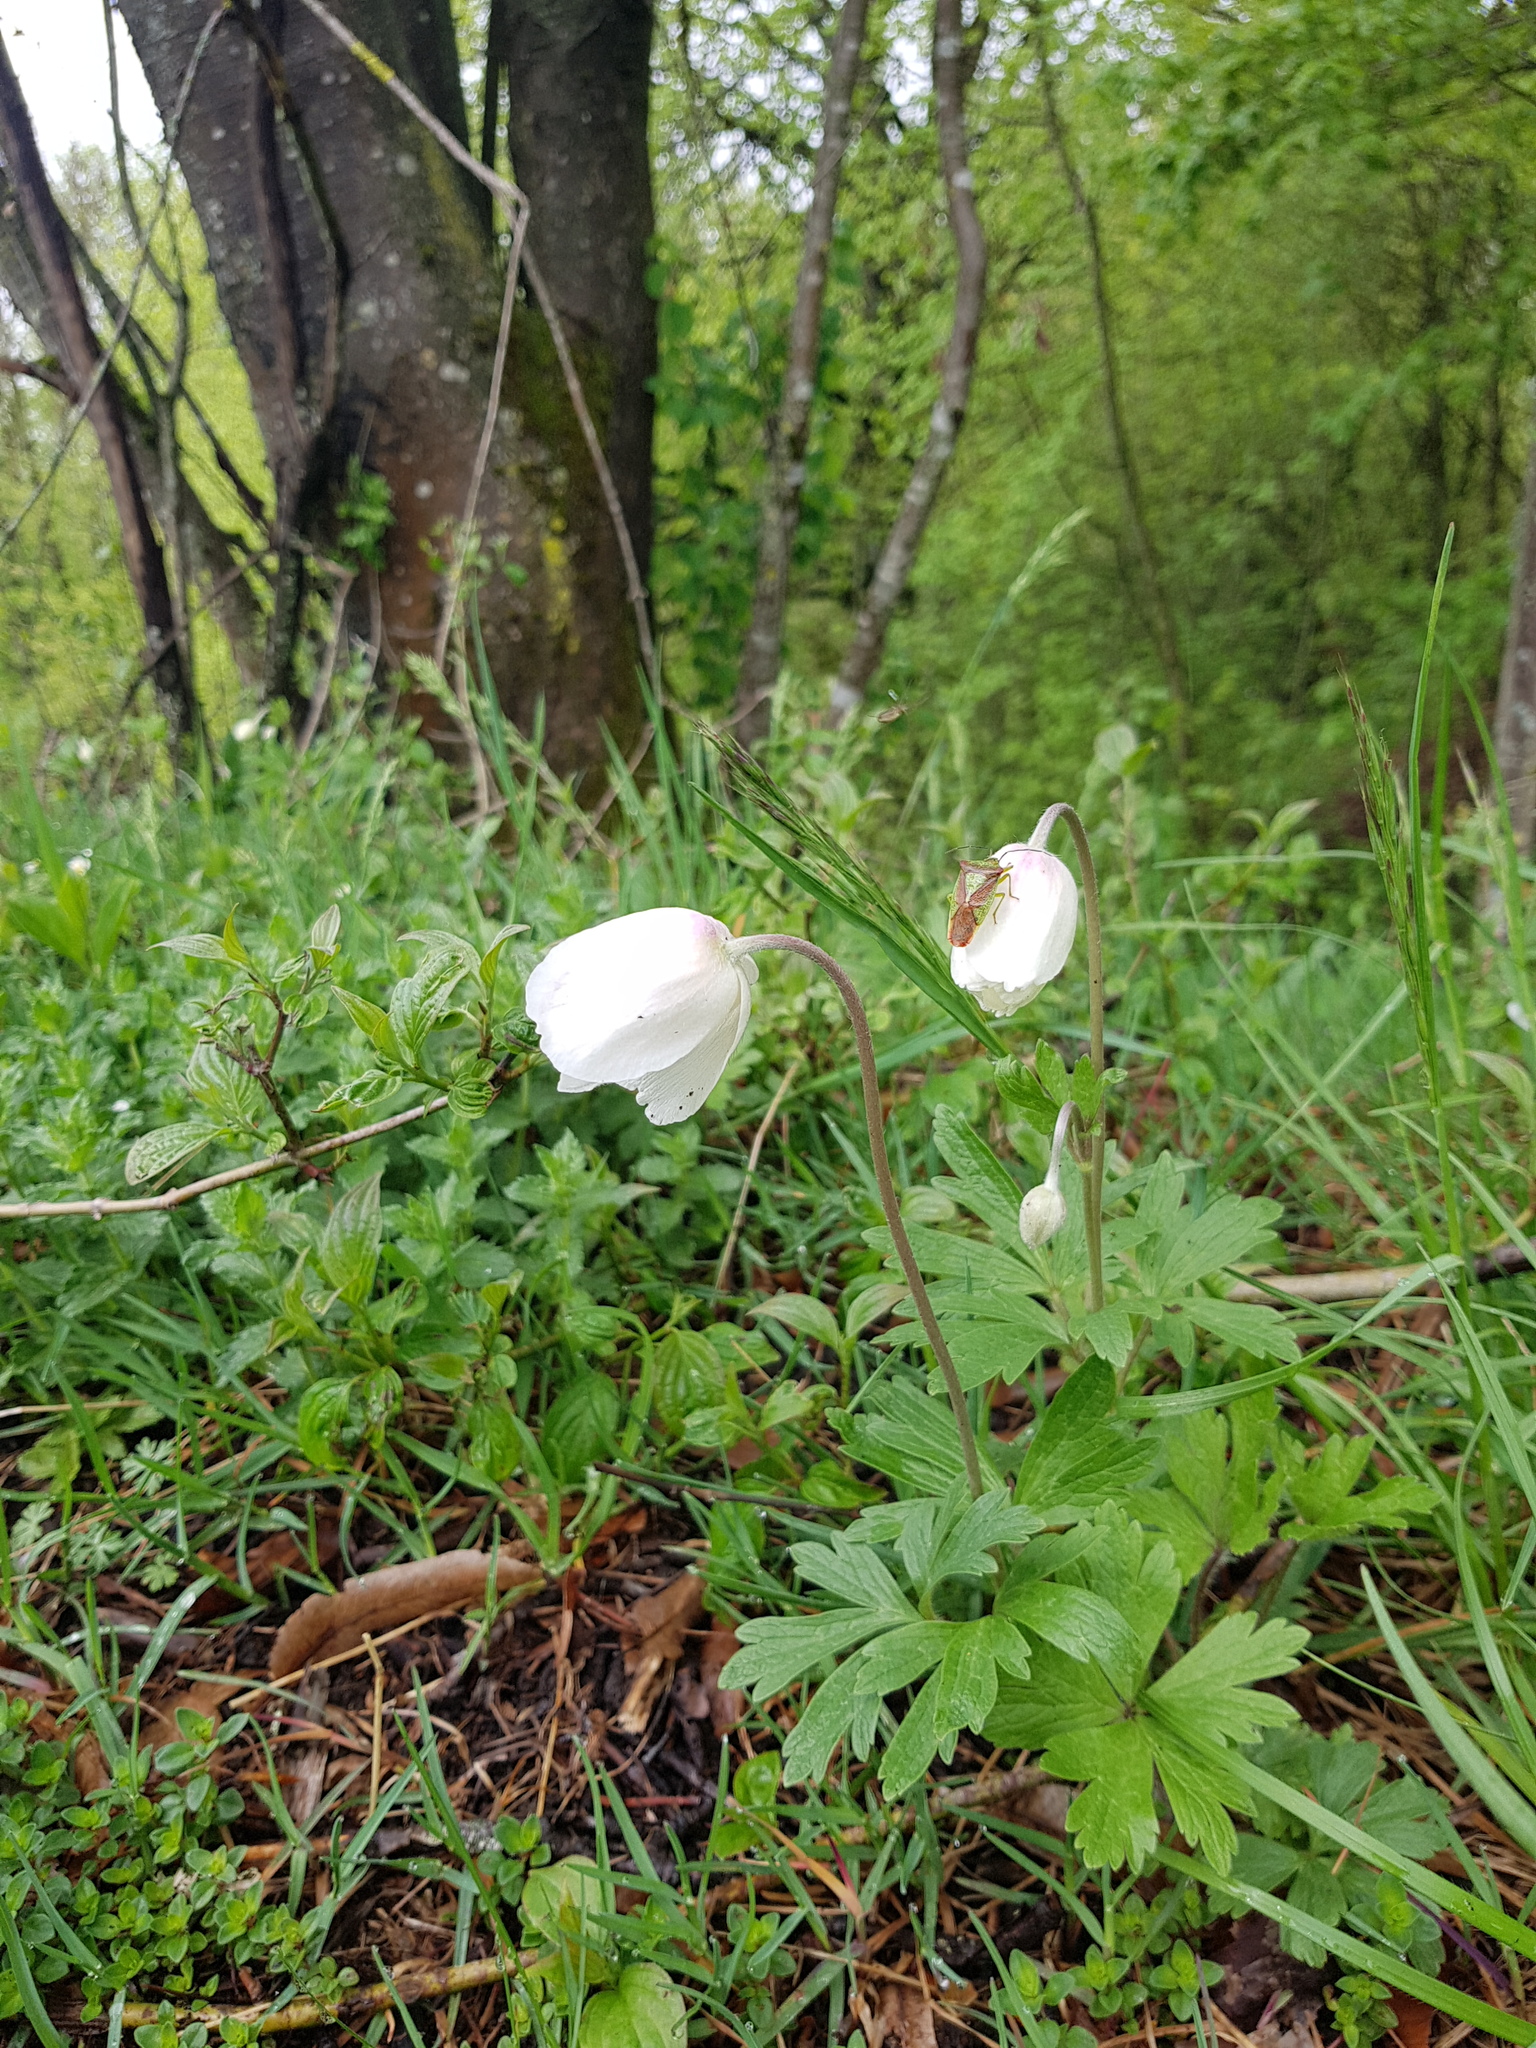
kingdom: Plantae
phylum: Tracheophyta
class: Magnoliopsida
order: Ranunculales
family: Ranunculaceae
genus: Anemone
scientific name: Anemone sylvestris
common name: Snowdrop anemone
